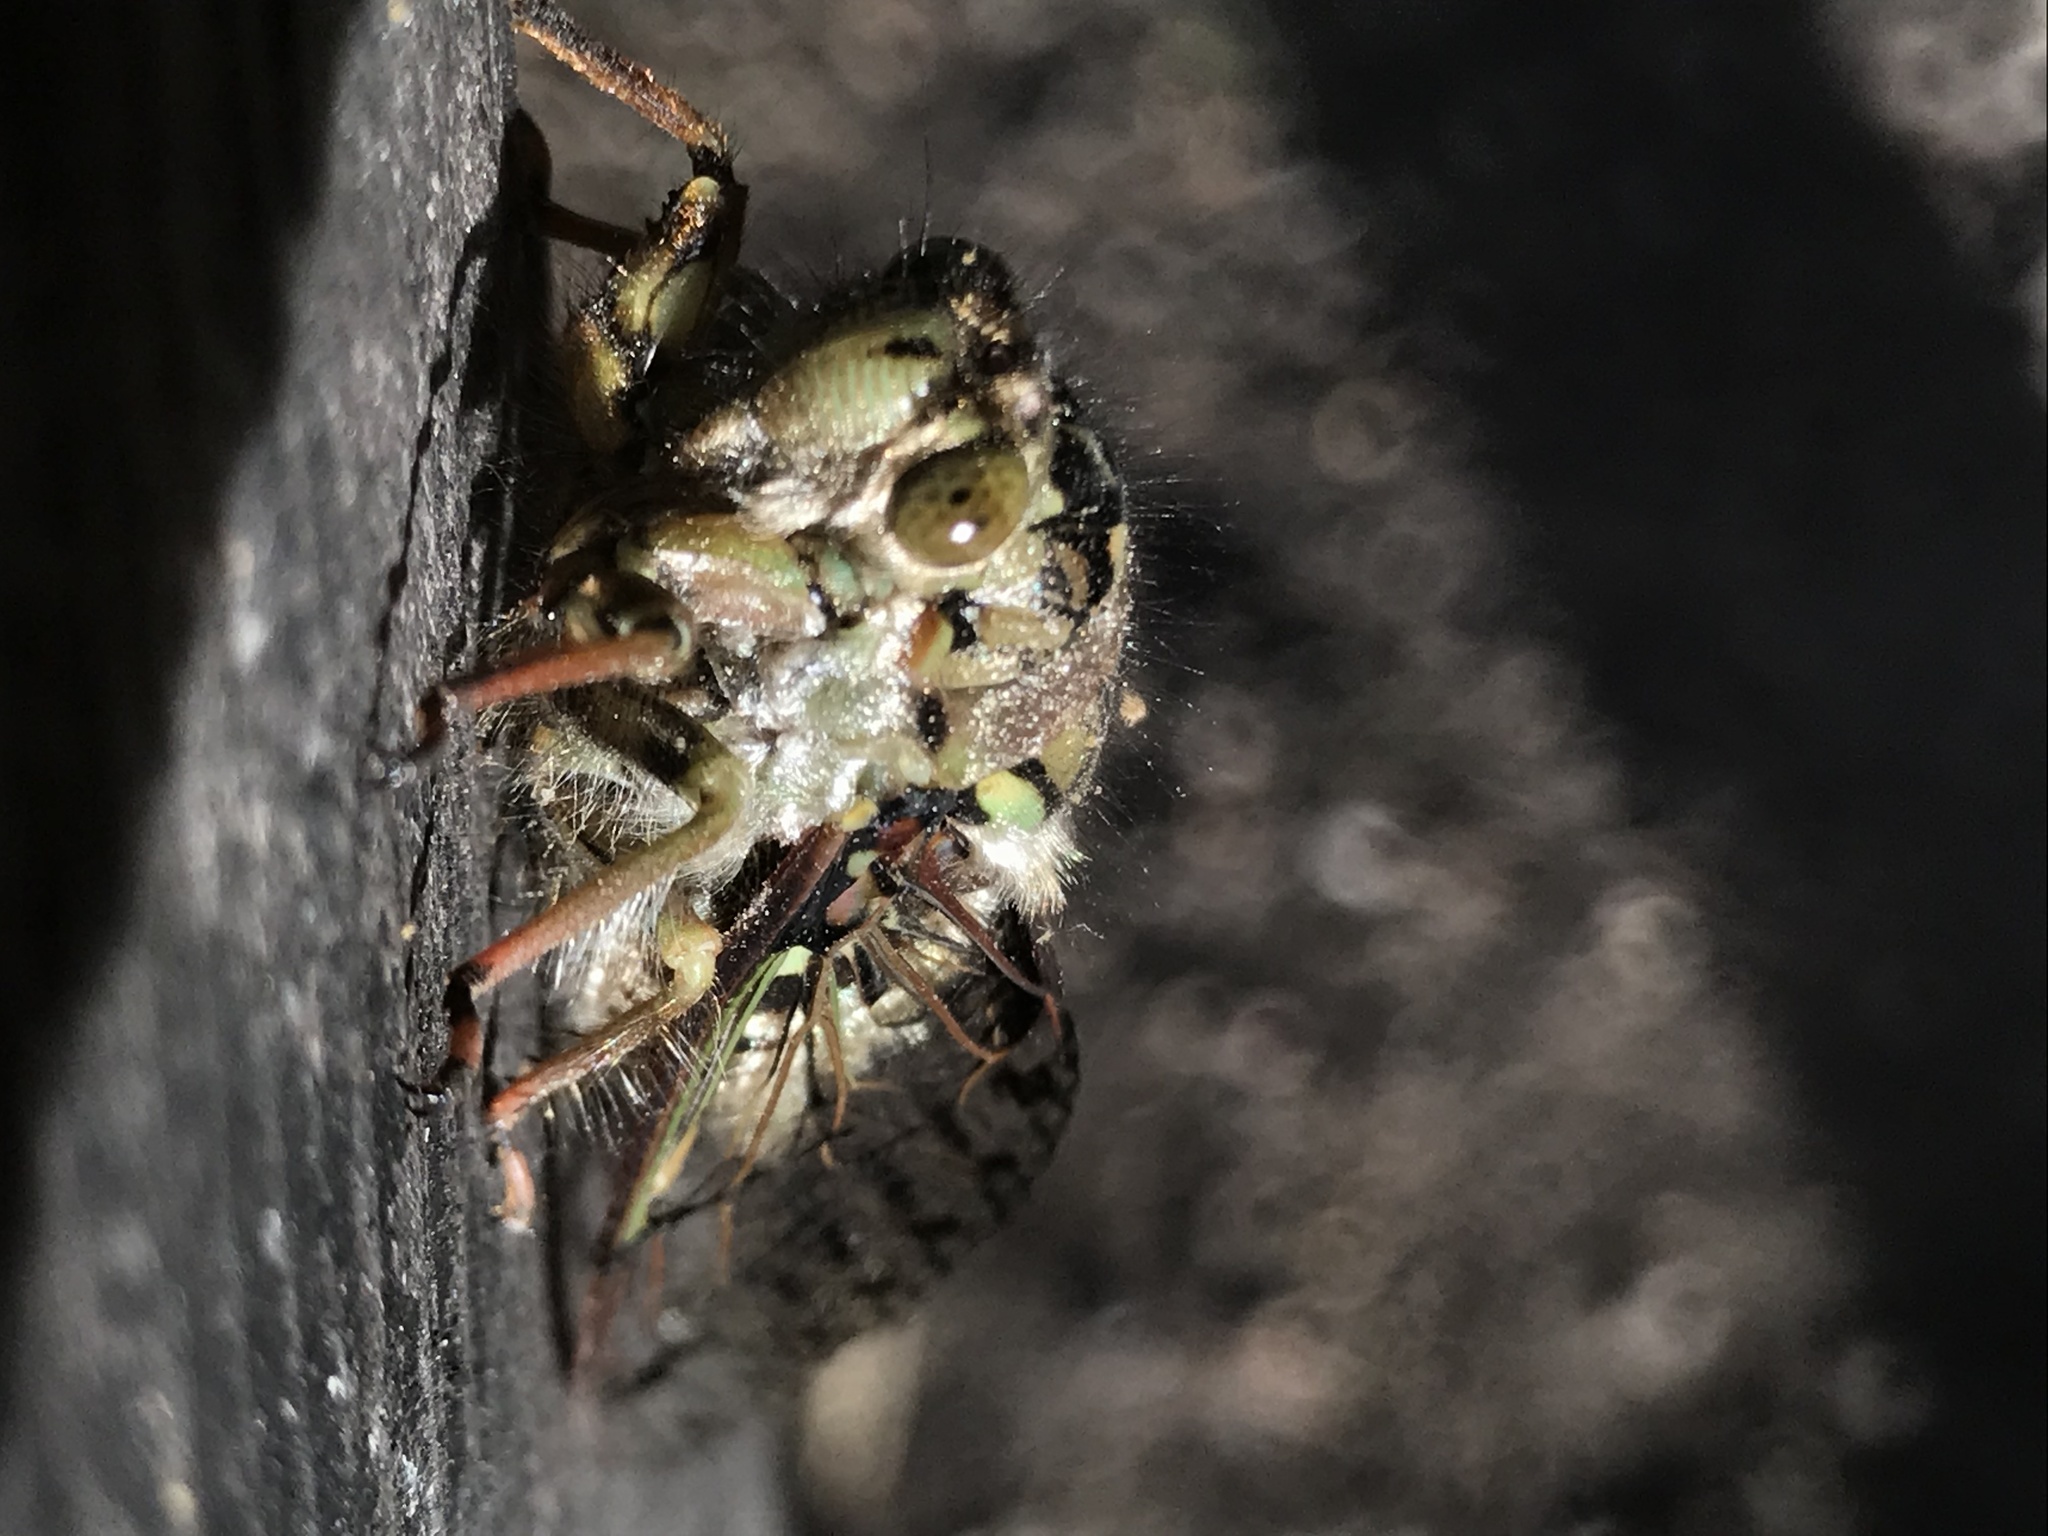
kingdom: Animalia
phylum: Arthropoda
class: Insecta
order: Hemiptera
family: Cicadidae
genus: Carineta
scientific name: Carineta trivittata
